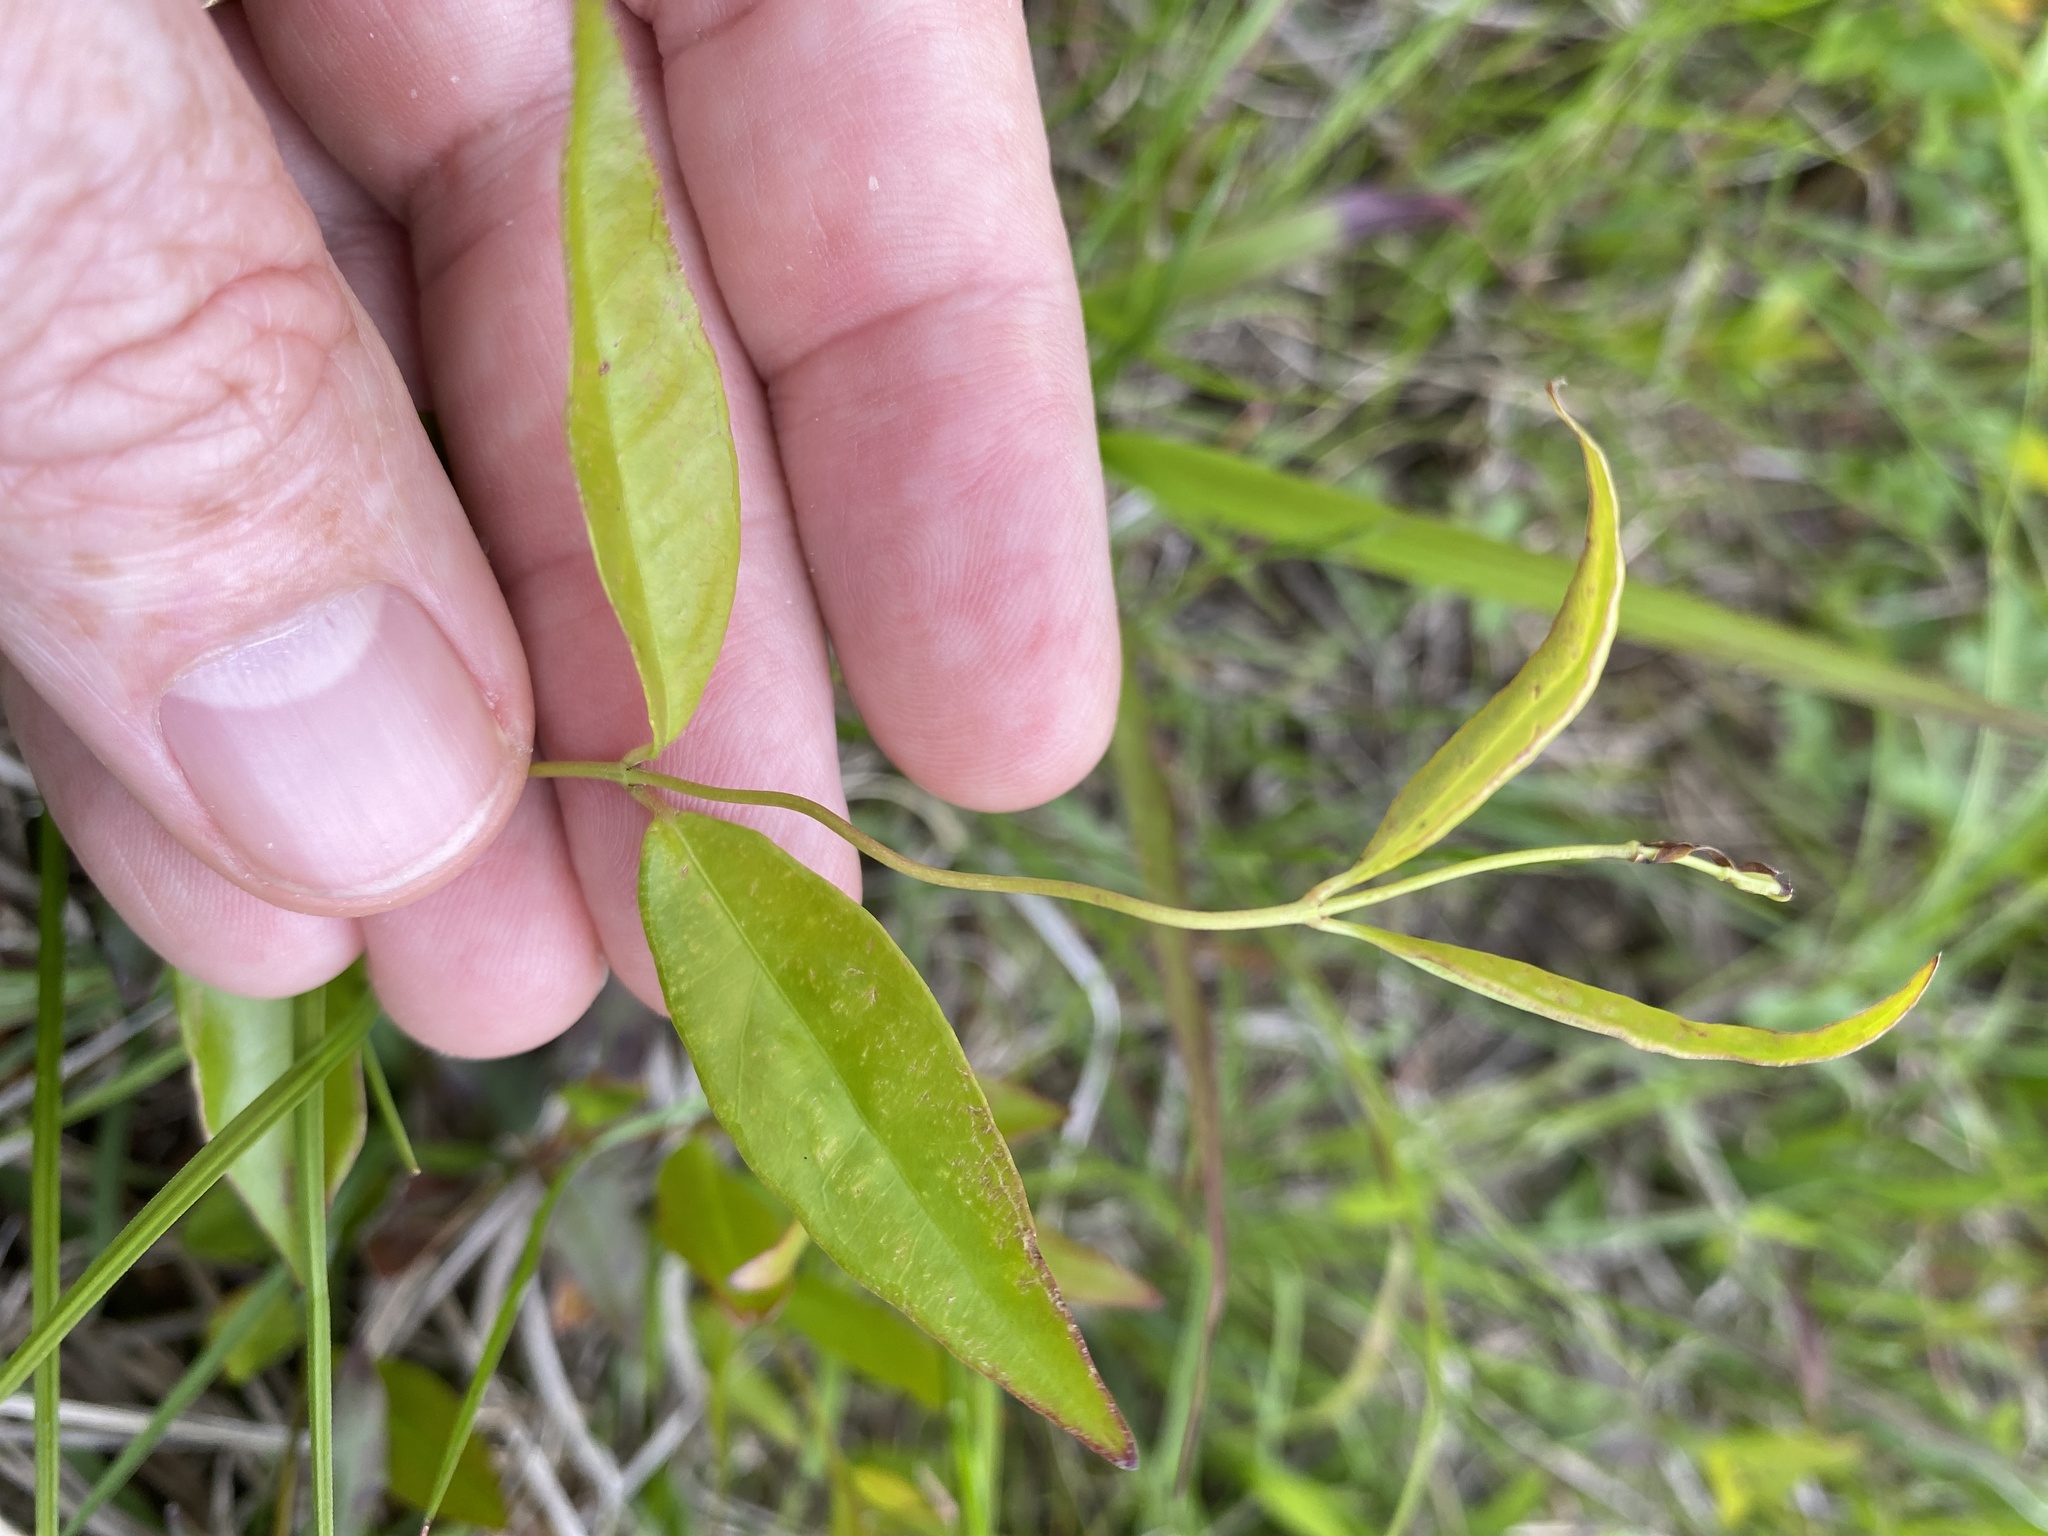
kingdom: Plantae
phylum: Tracheophyta
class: Magnoliopsida
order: Gentianales
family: Gelsemiaceae
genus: Gelsemium
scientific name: Gelsemium sempervirens
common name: Carolina-jasmine
